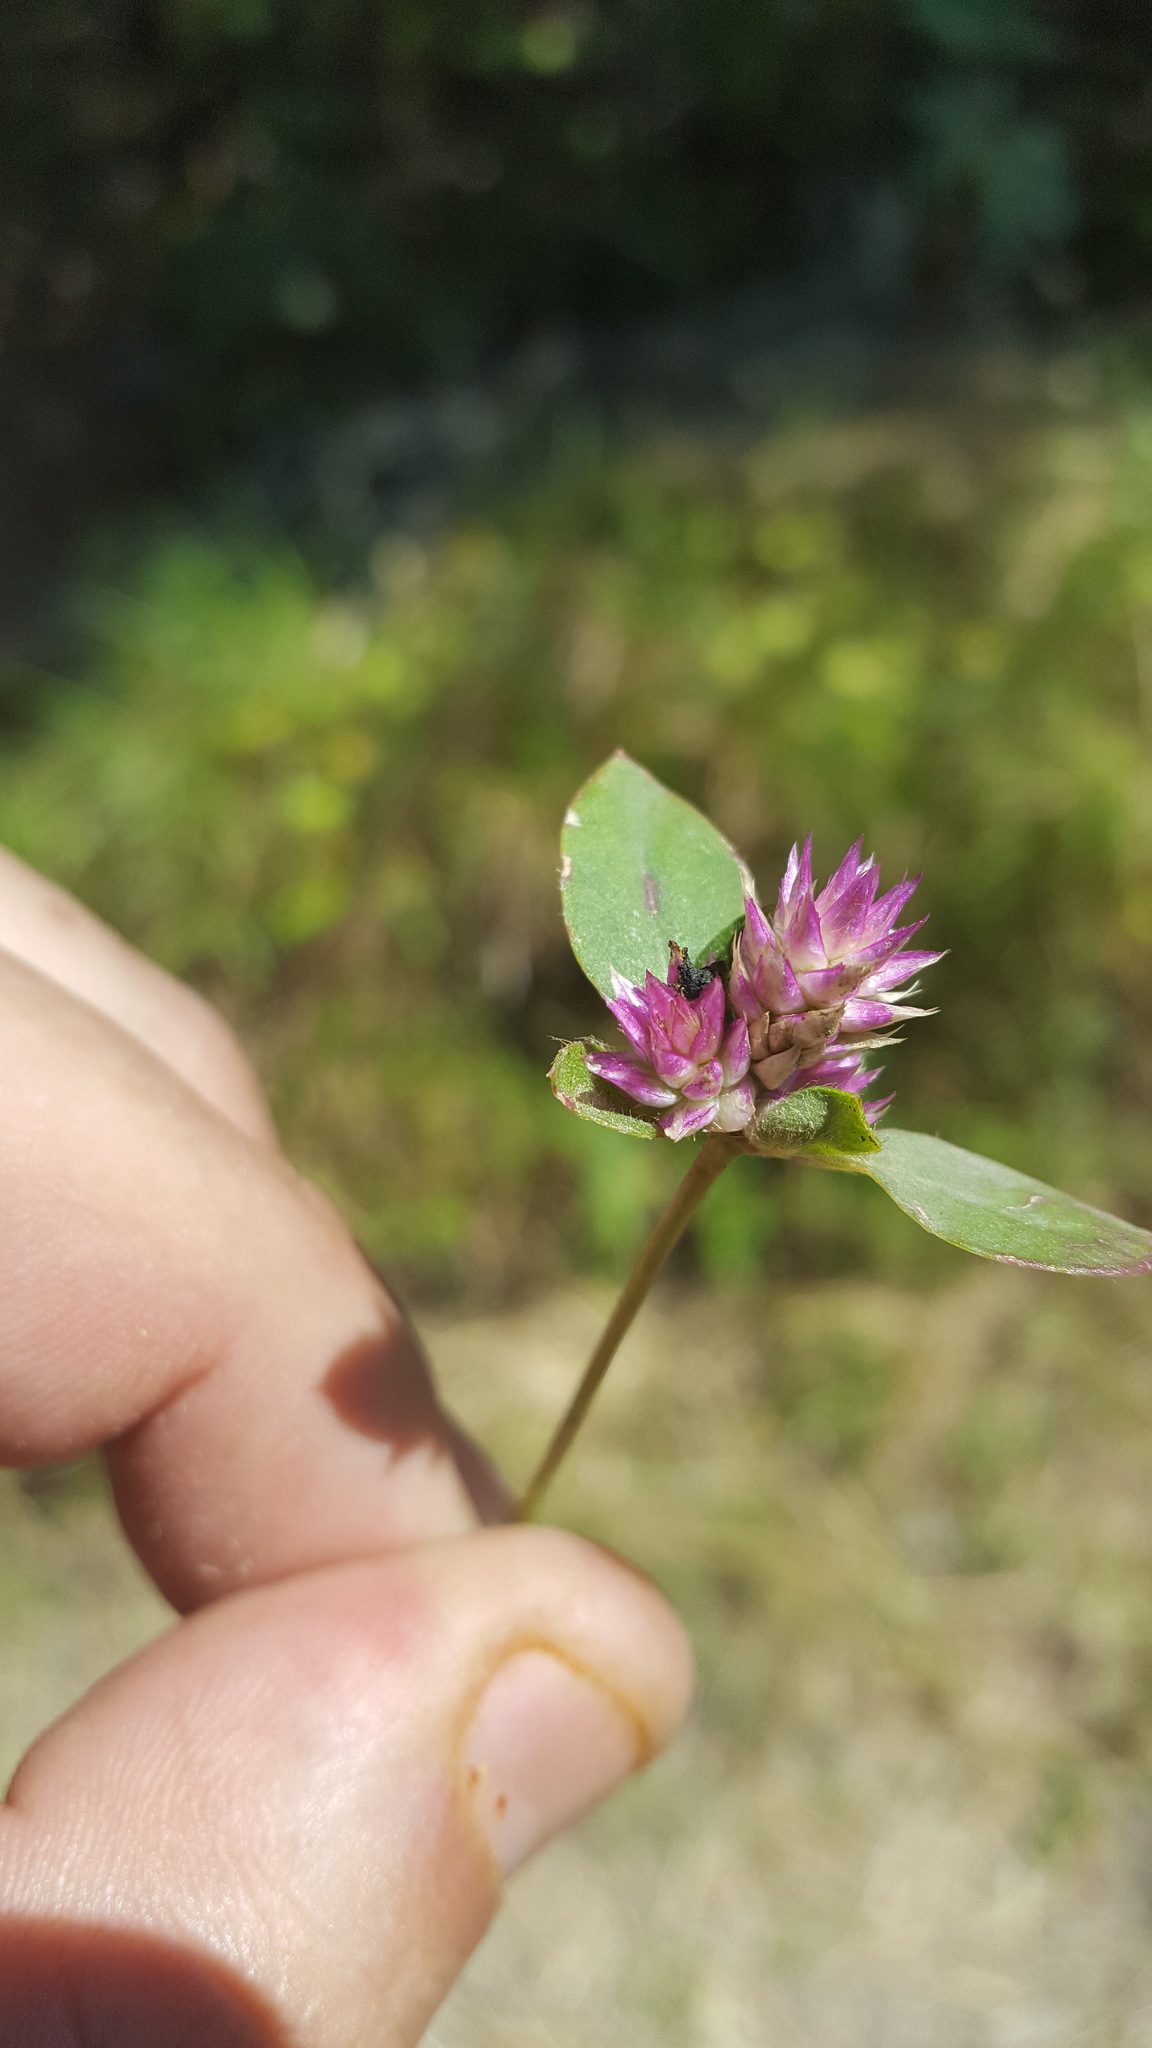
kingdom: Plantae
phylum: Tracheophyta
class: Magnoliopsida
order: Caryophyllales
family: Amaranthaceae
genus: Gomphrena
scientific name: Gomphrena serrata
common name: Arrasa con todo
